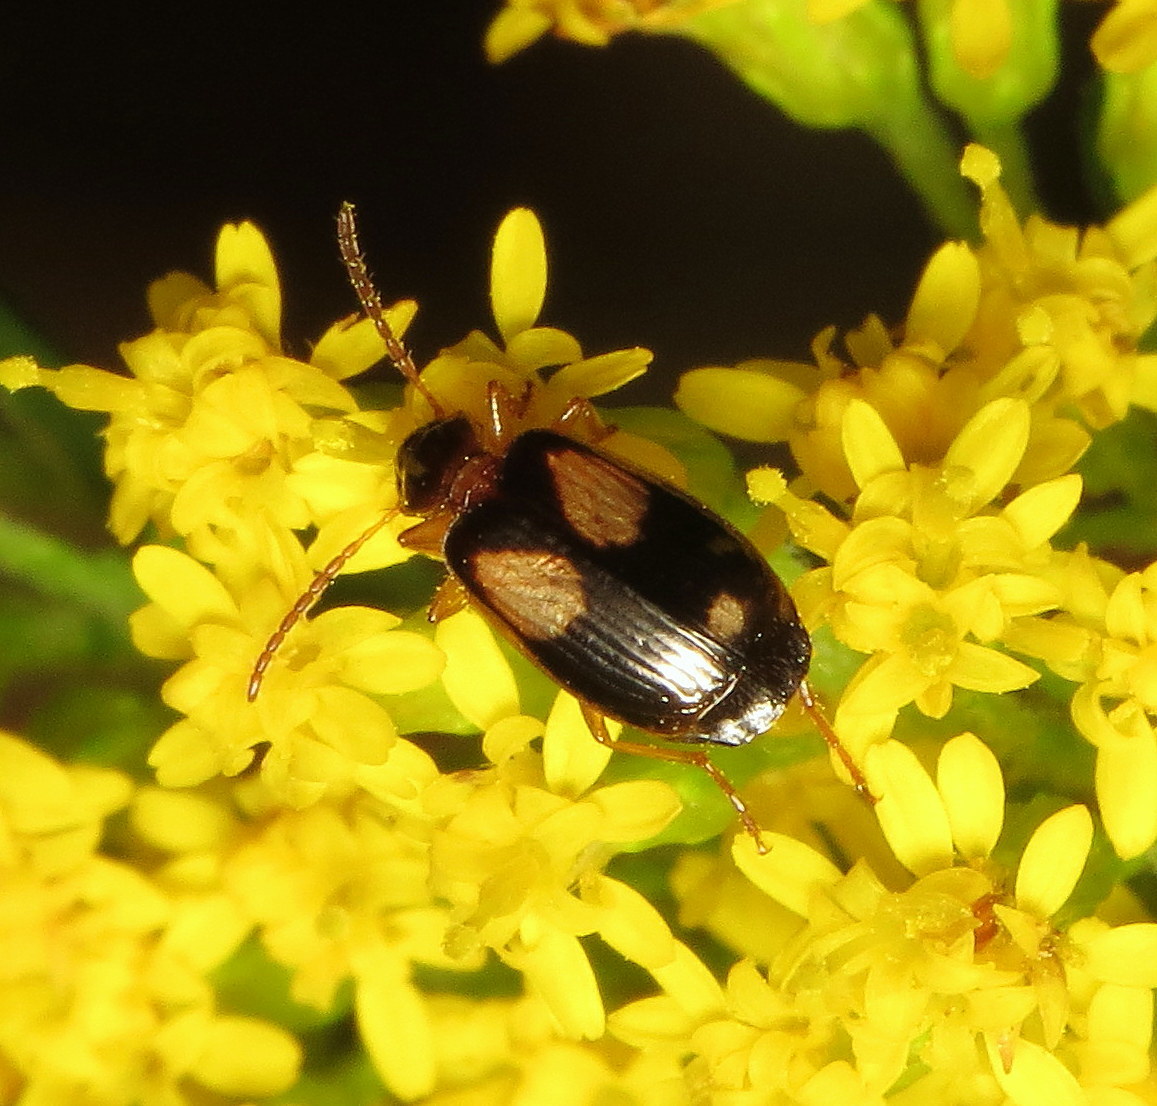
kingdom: Animalia
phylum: Arthropoda
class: Insecta
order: Coleoptera
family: Carabidae
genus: Lebia
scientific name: Lebia ornata
